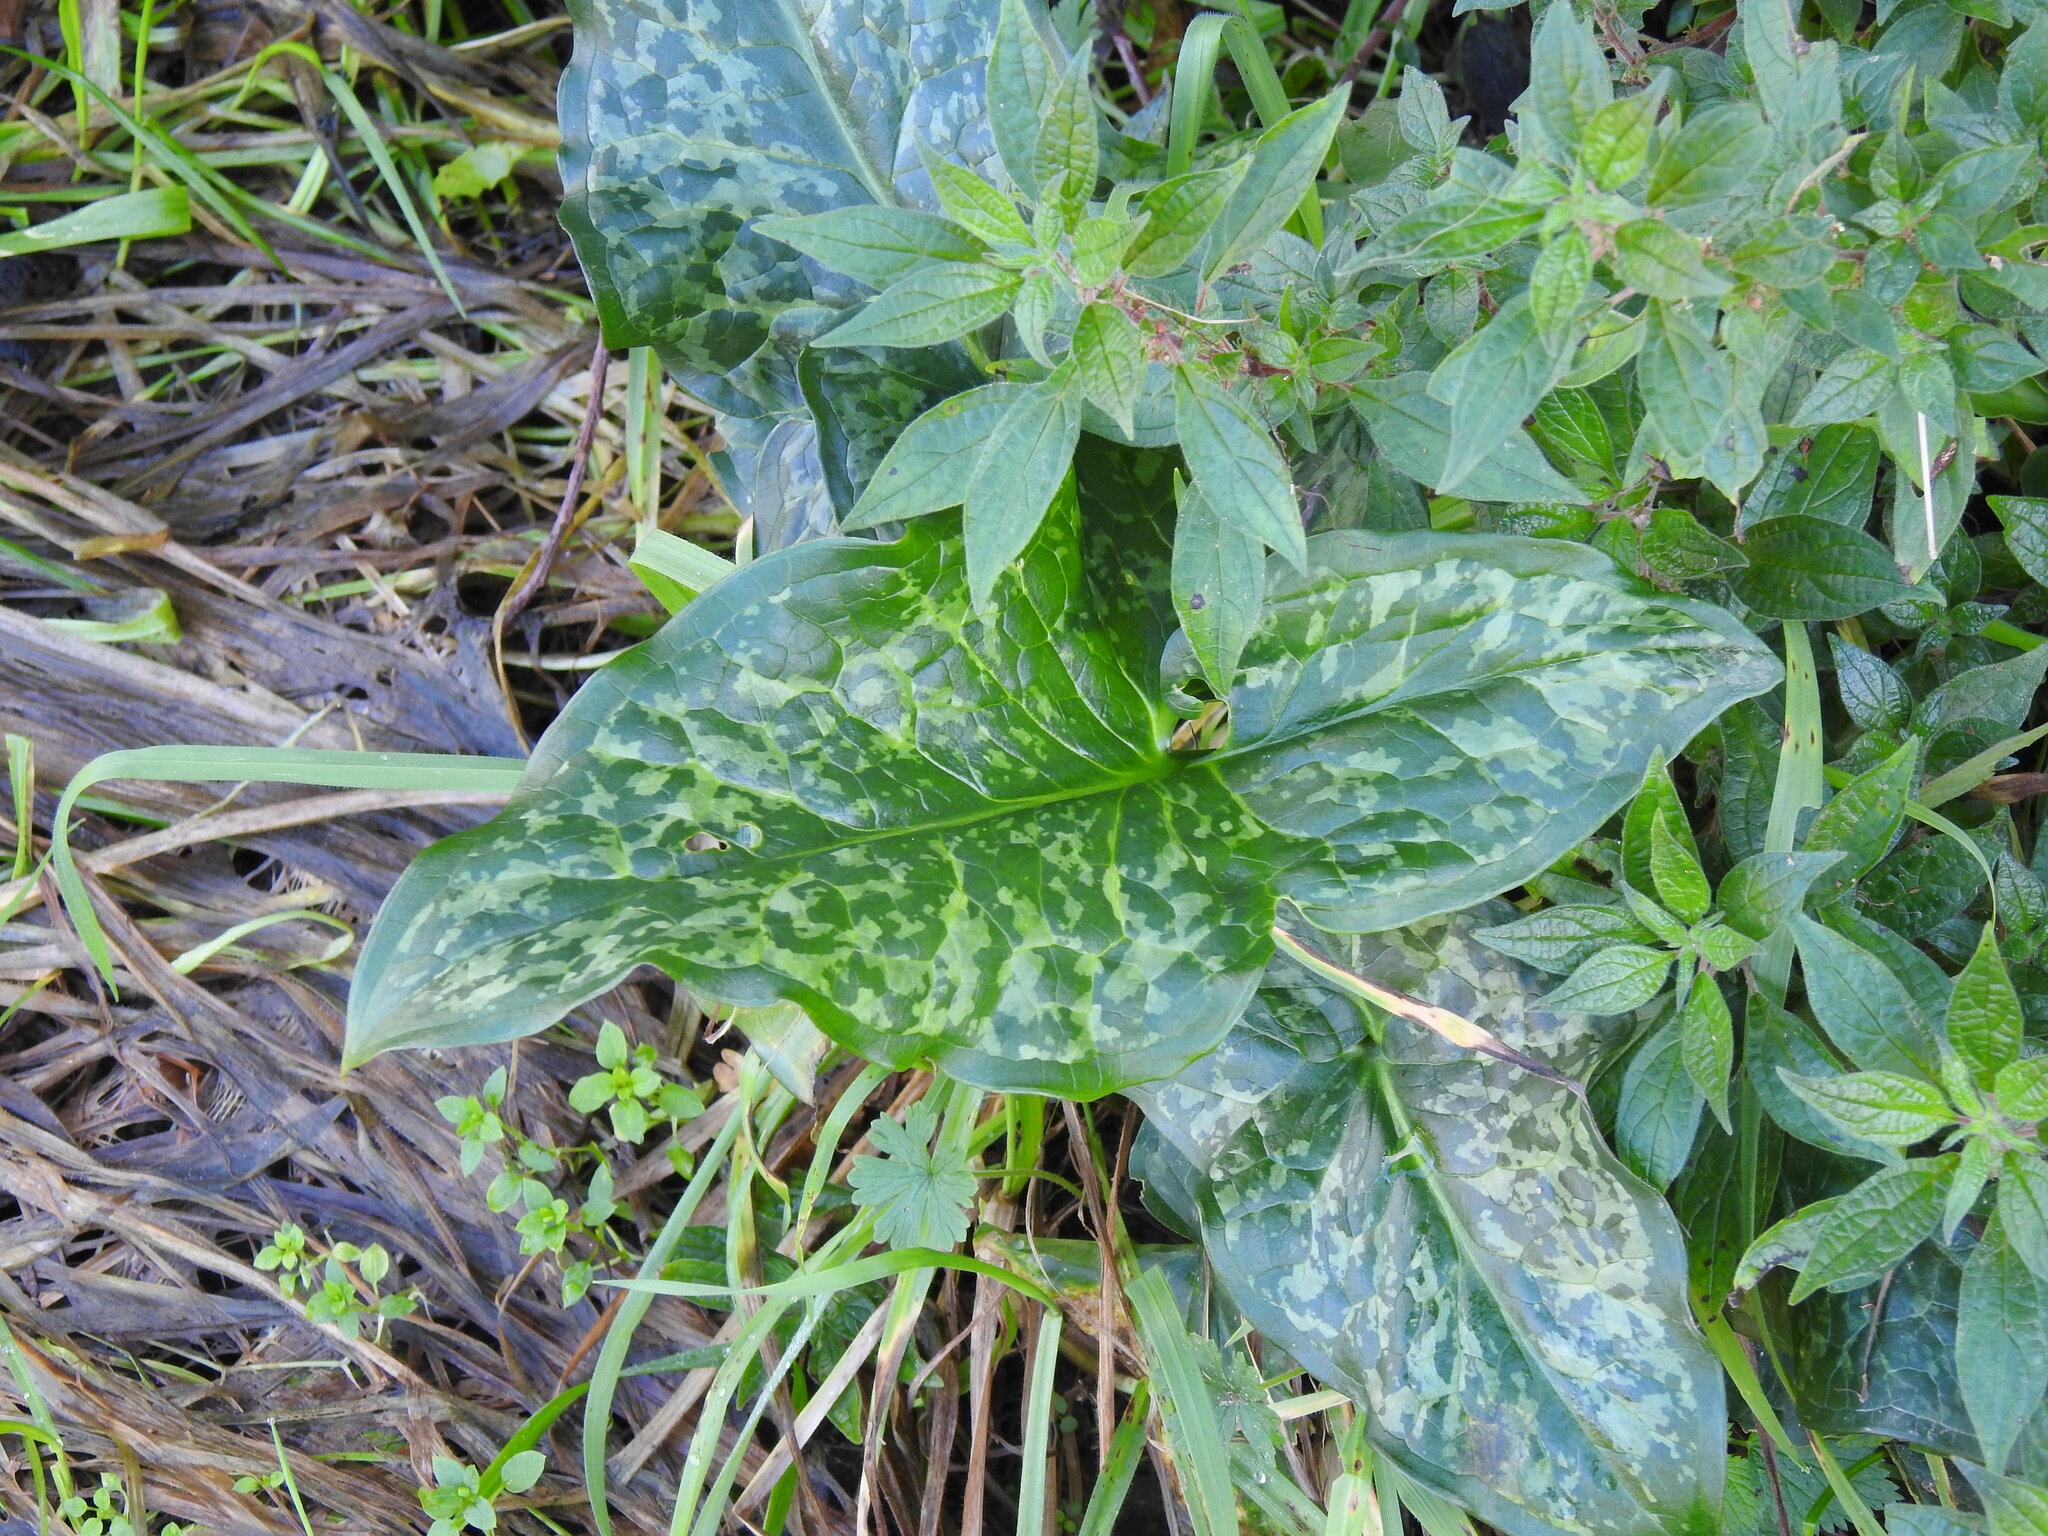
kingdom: Plantae
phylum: Tracheophyta
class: Liliopsida
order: Alismatales
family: Araceae
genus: Arum
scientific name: Arum italicum
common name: Italian lords-and-ladies
